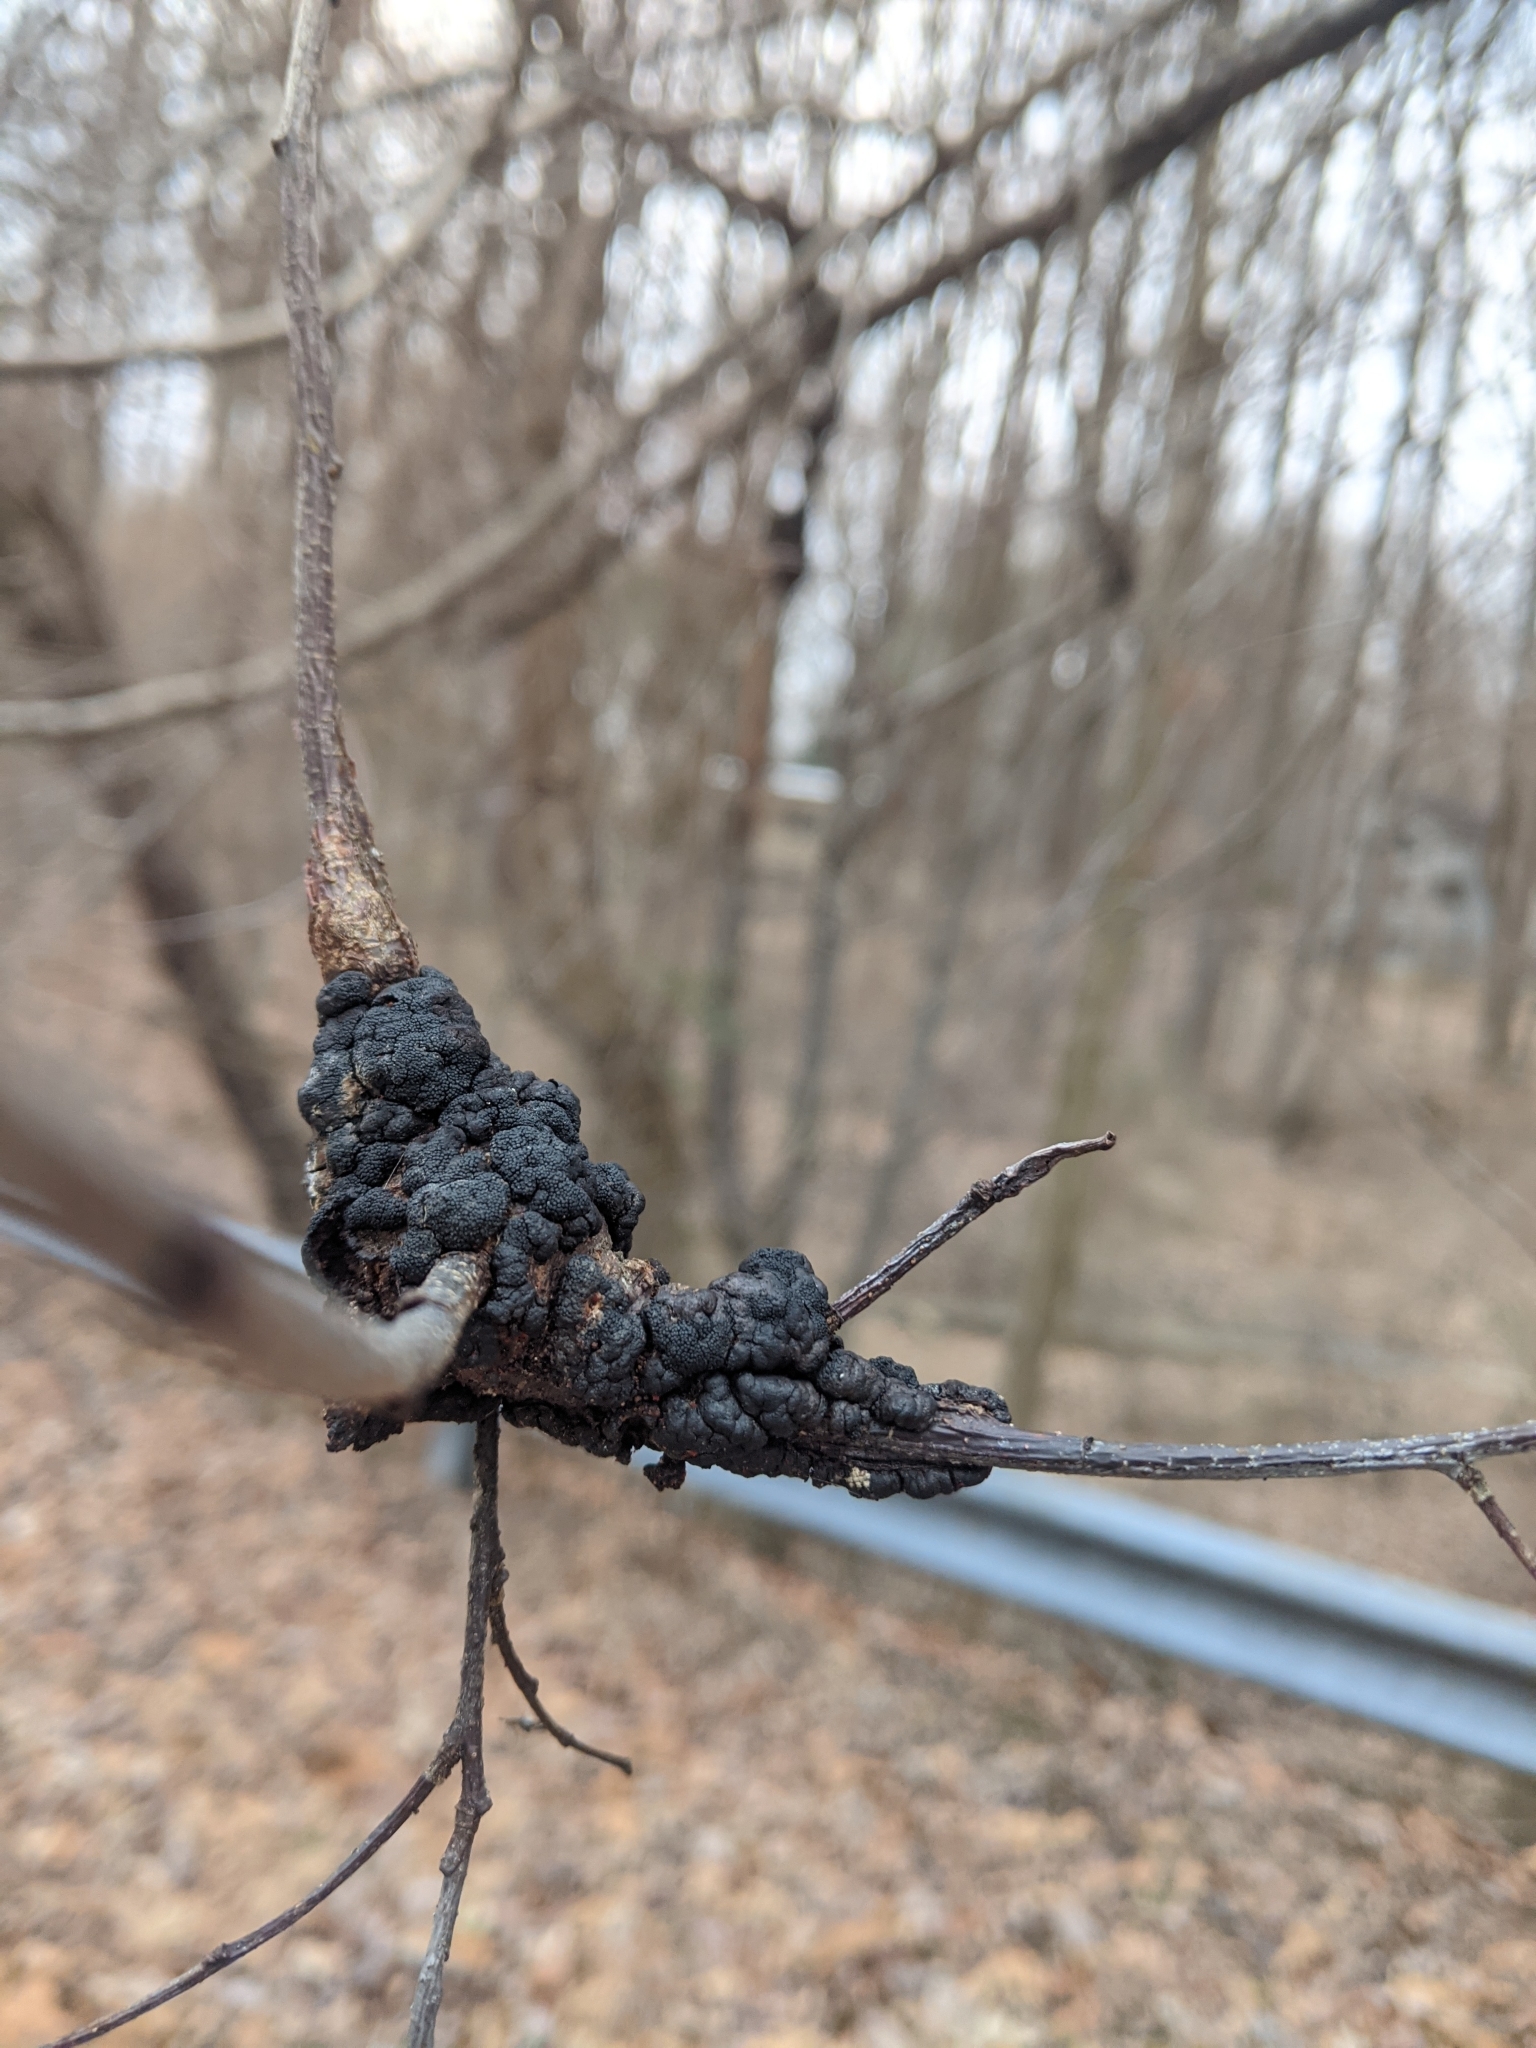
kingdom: Fungi
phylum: Ascomycota
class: Dothideomycetes
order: Venturiales
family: Venturiaceae
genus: Apiosporina
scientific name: Apiosporina morbosa
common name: Black knot
